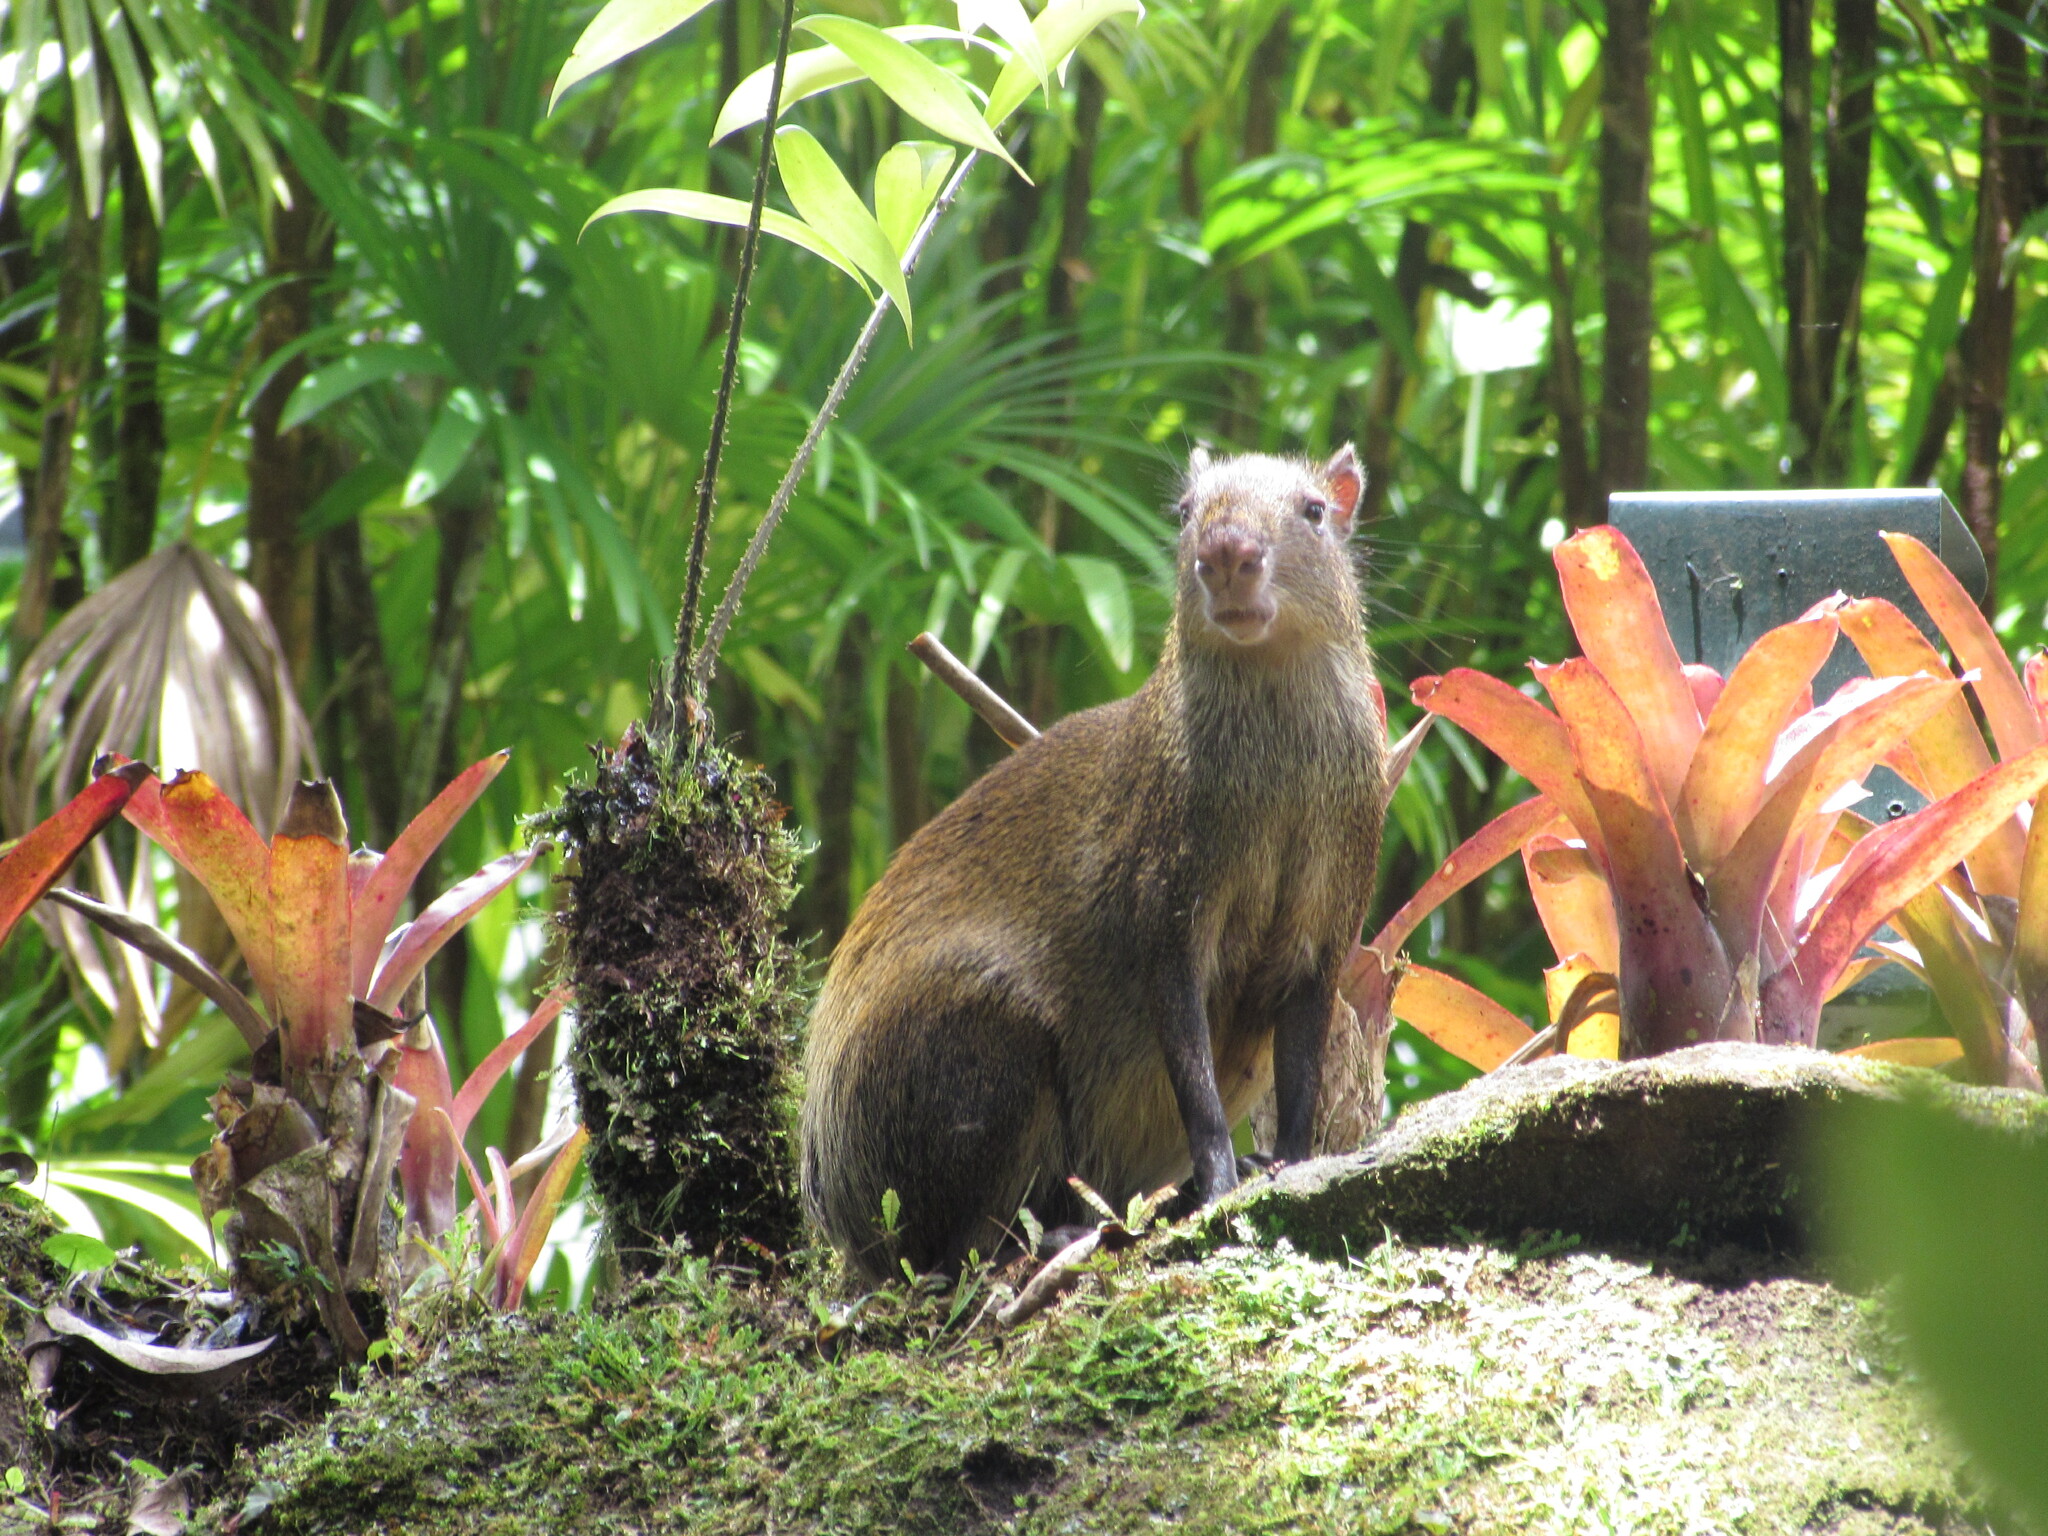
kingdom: Animalia
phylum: Chordata
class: Mammalia
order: Rodentia
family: Dasyproctidae
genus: Dasyprocta
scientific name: Dasyprocta punctata
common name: Central american agouti
